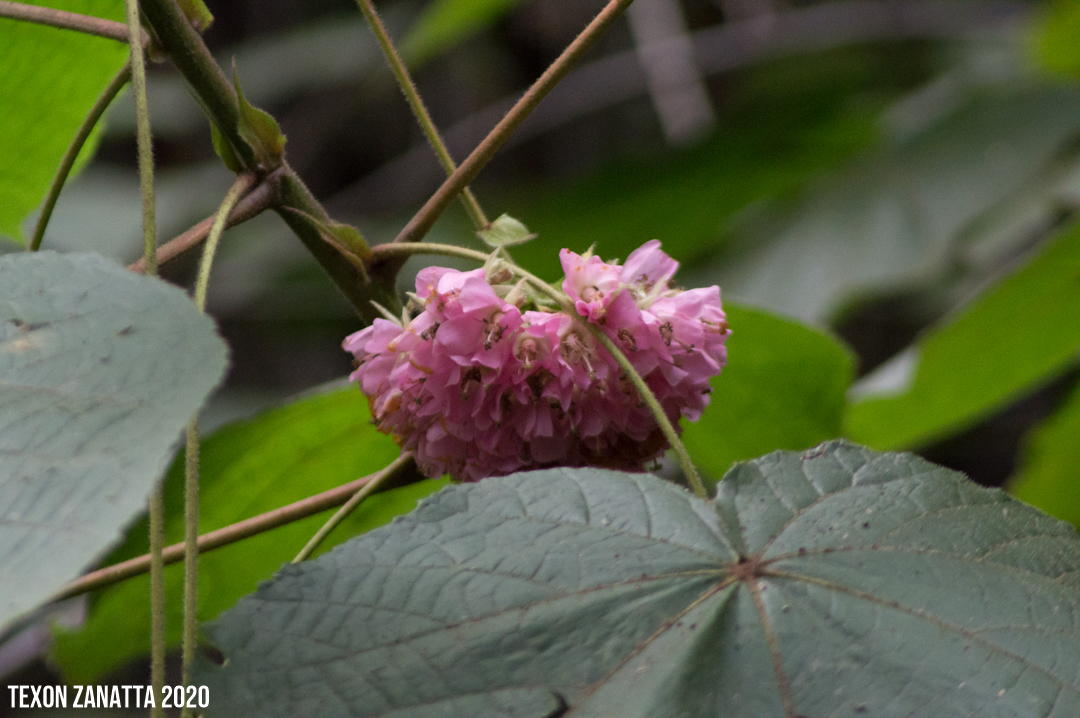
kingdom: Plantae
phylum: Tracheophyta
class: Magnoliopsida
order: Malvales
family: Malvaceae
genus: Dombeya
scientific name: Dombeya cayeuxii
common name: Pompomtree
